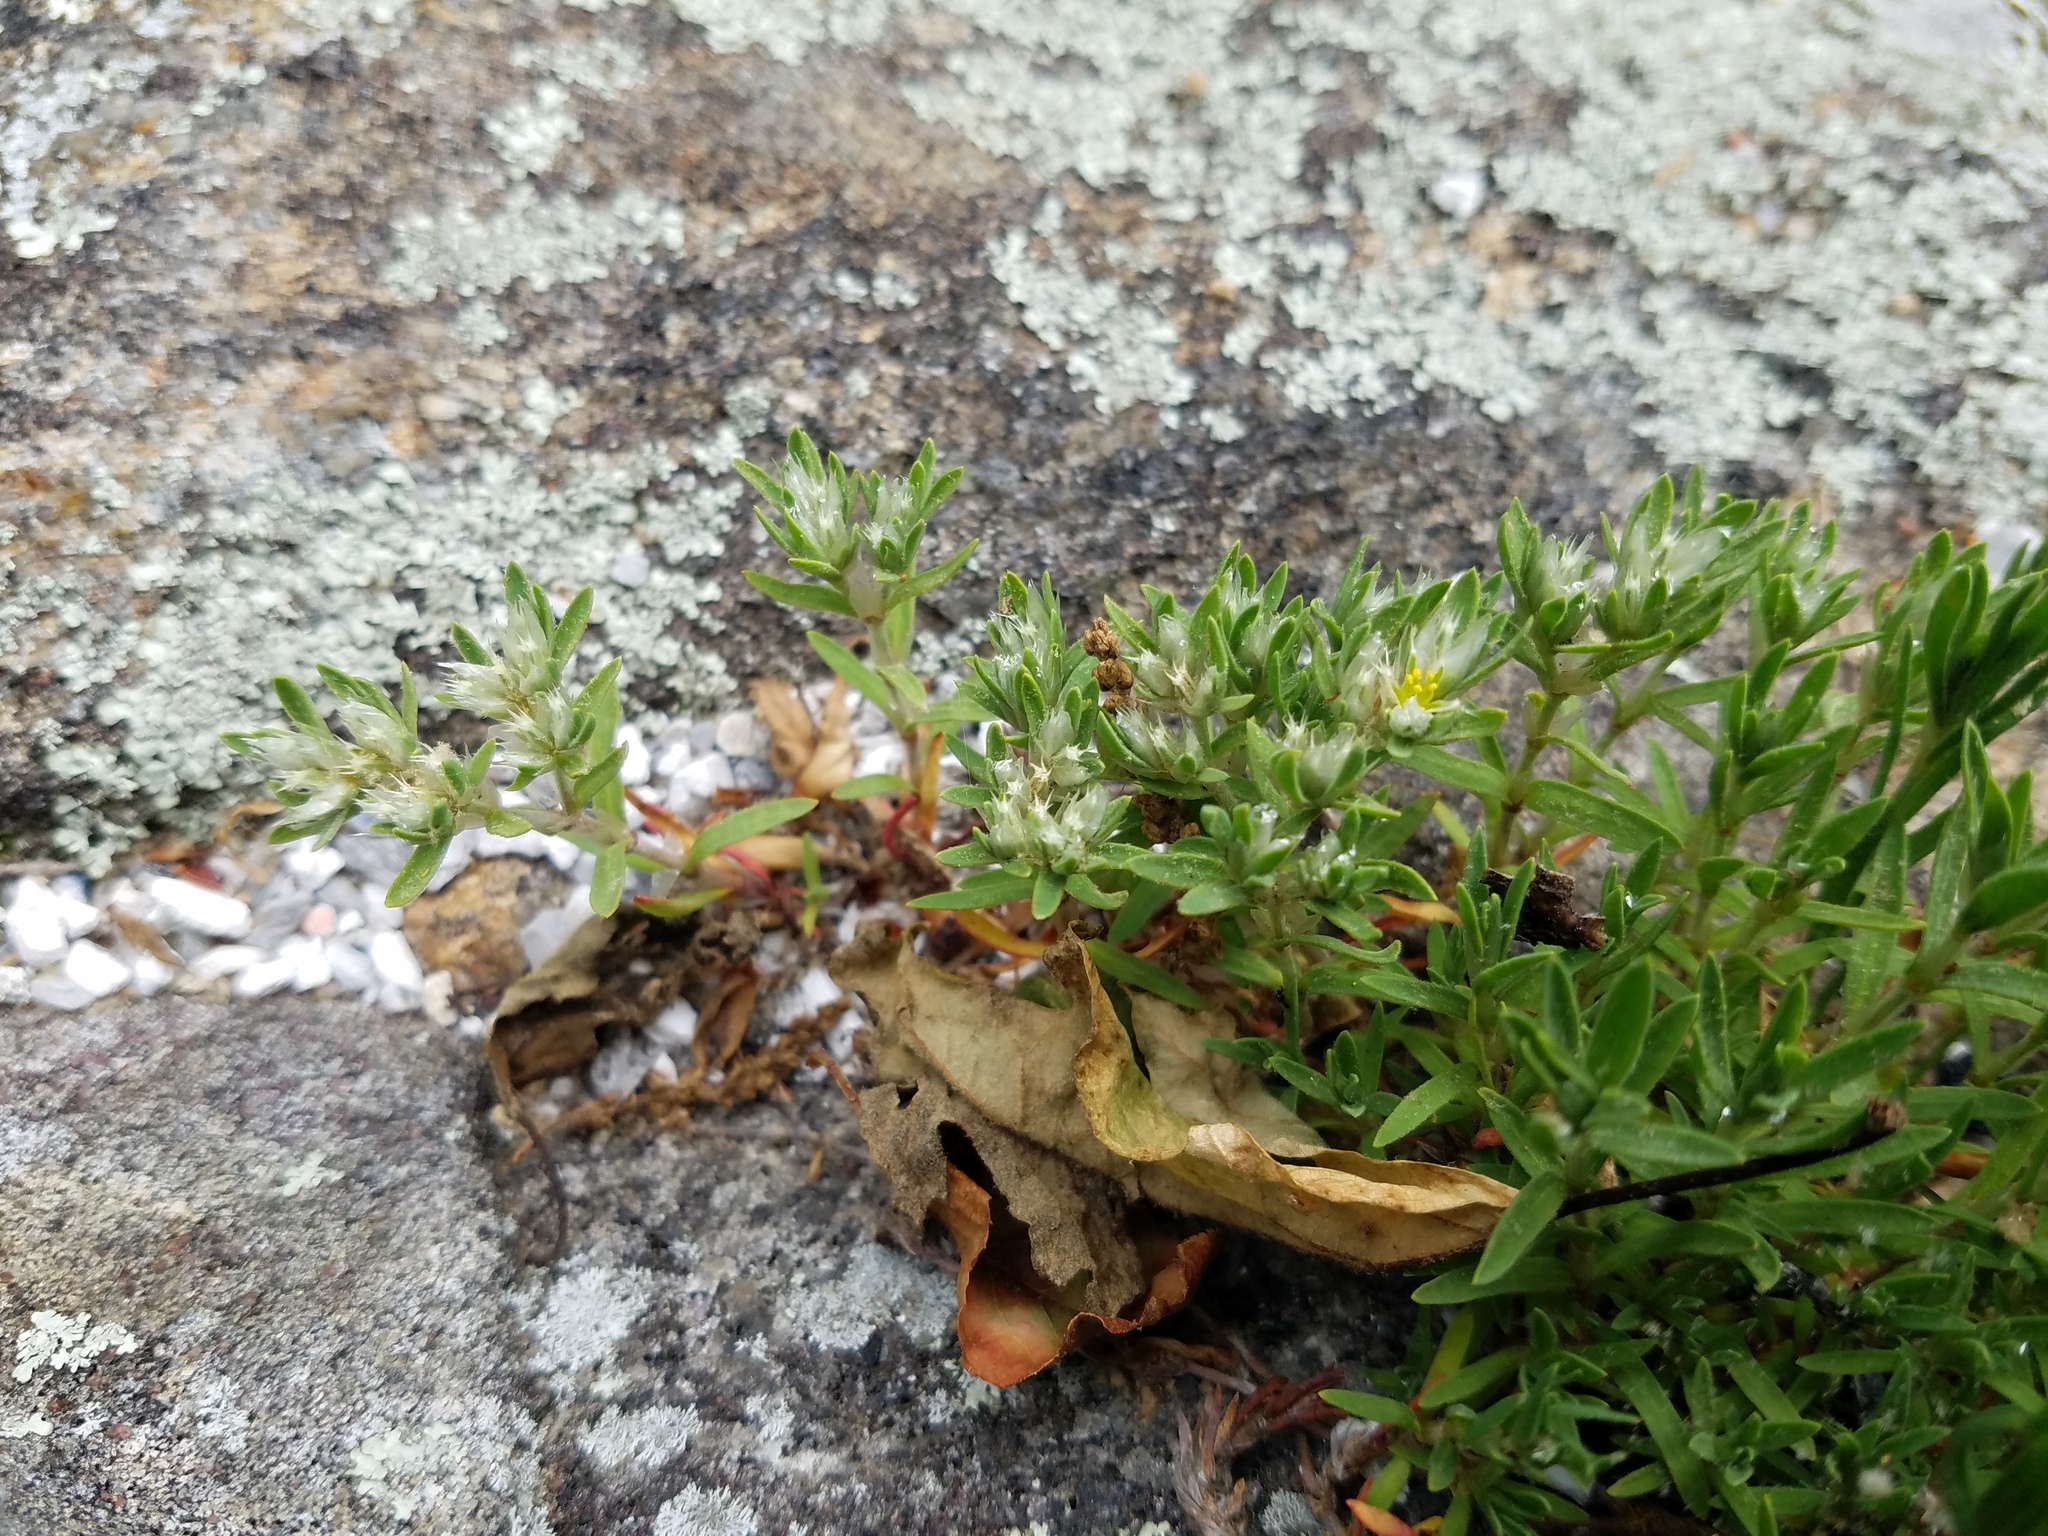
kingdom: Plantae
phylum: Tracheophyta
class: Magnoliopsida
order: Caryophyllales
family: Caryophyllaceae
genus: Paronychia
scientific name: Paronychia argyrocoma
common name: Silverling
